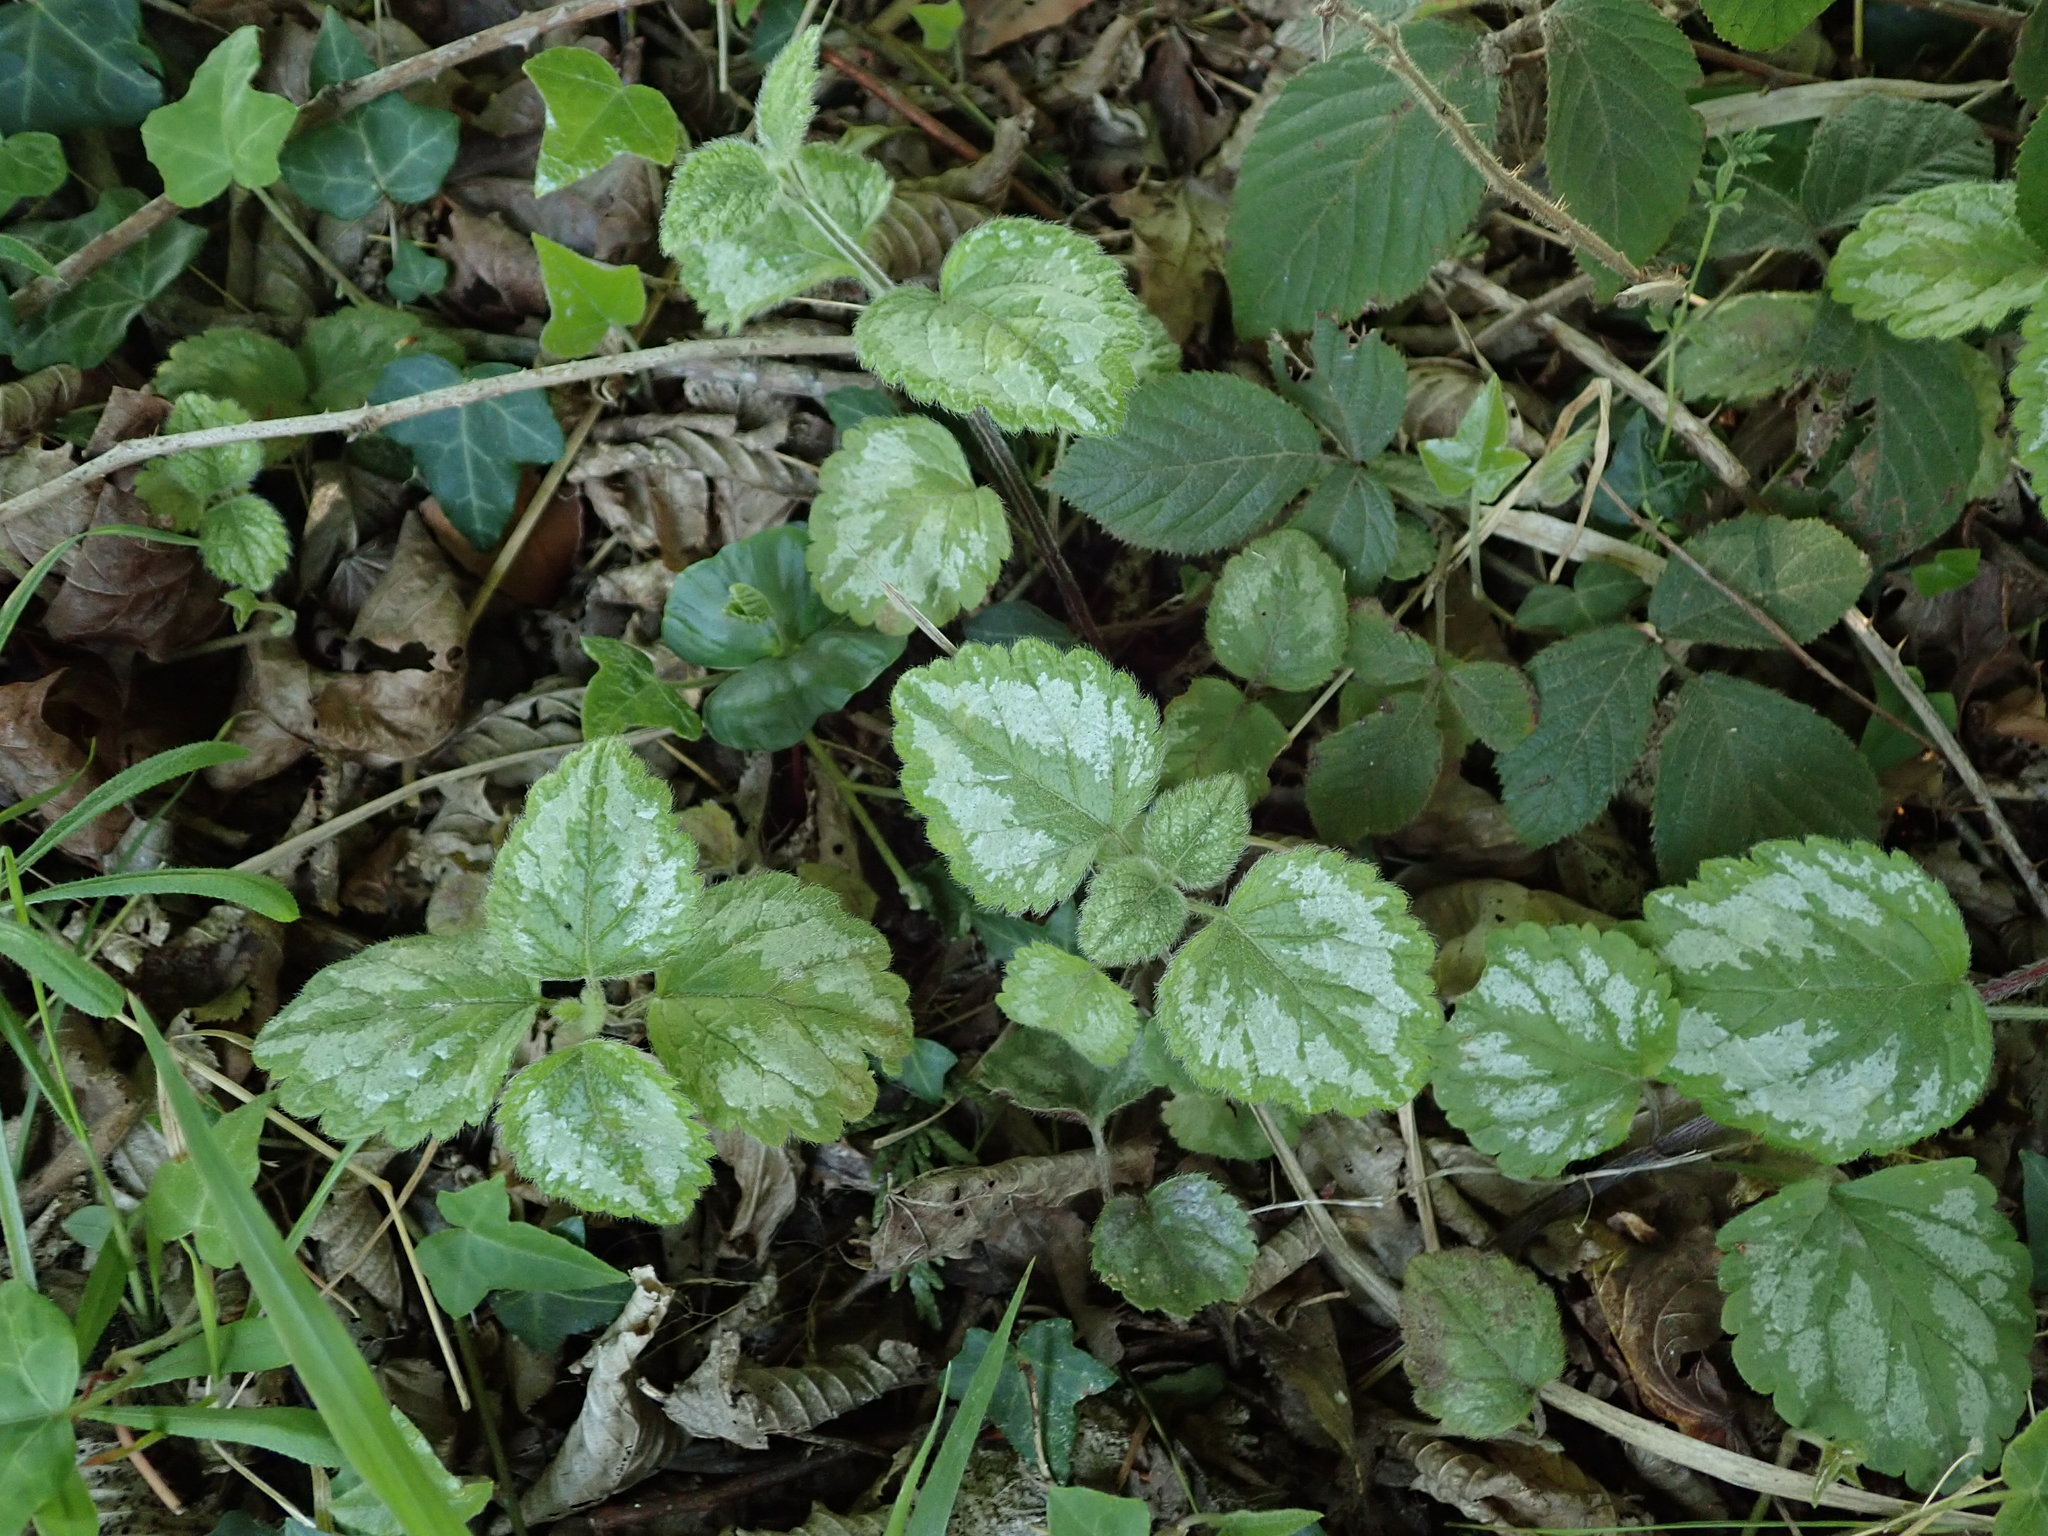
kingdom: Plantae
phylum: Tracheophyta
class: Magnoliopsida
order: Lamiales
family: Lamiaceae
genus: Lamium
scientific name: Lamium galeobdolon
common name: Yellow archangel
